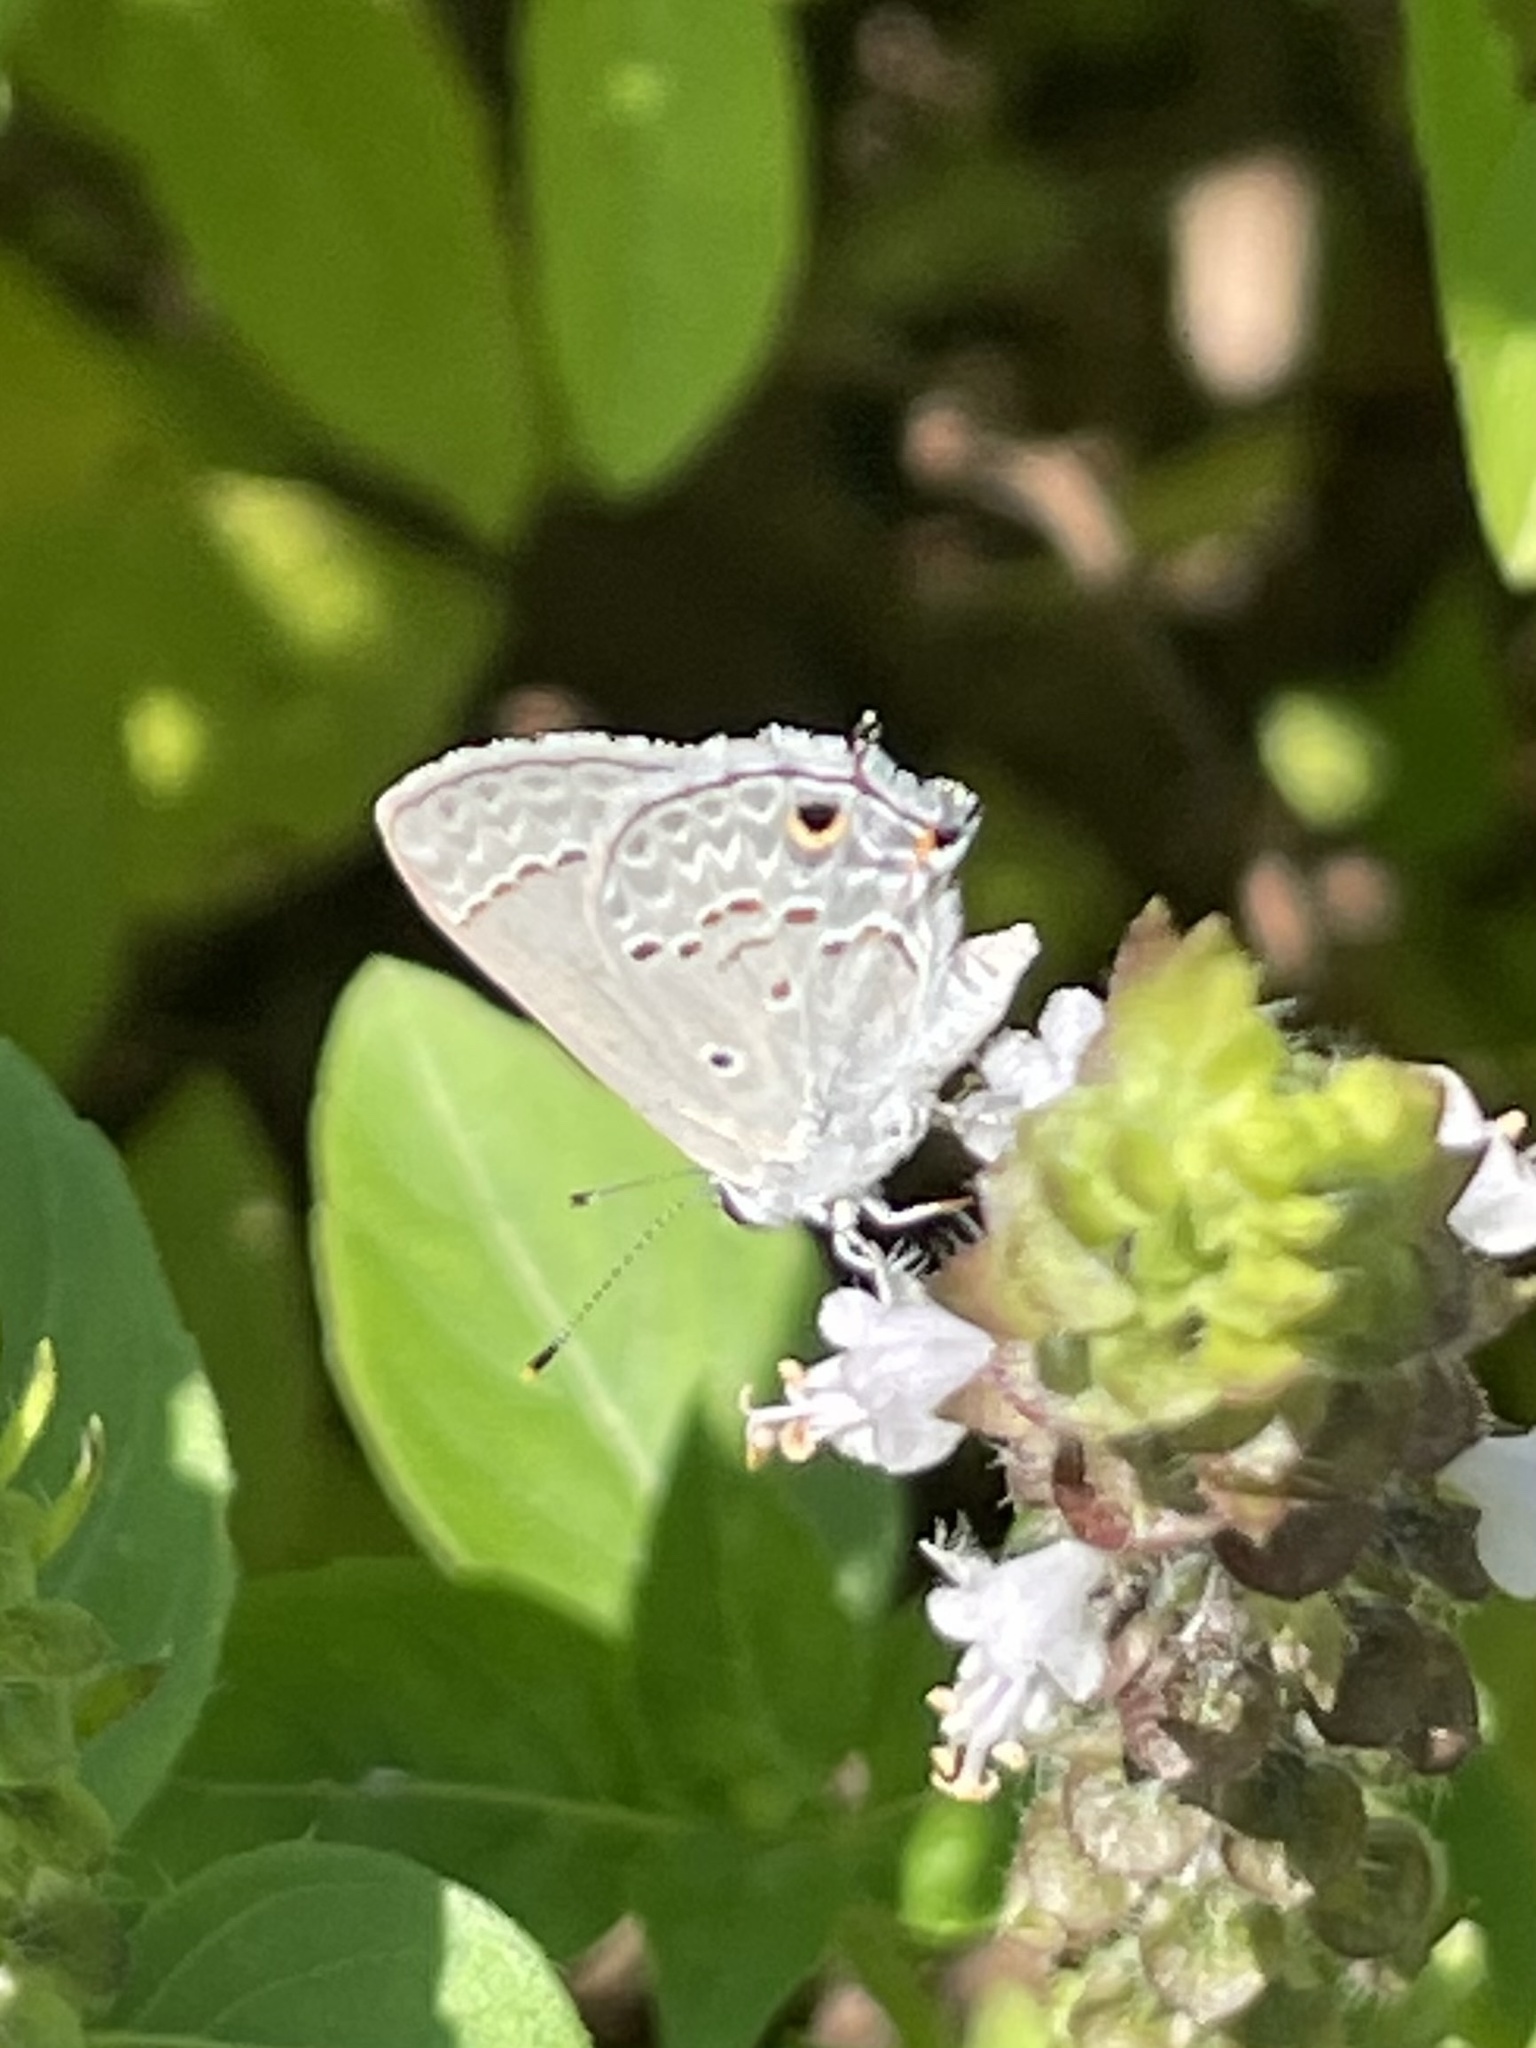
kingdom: Animalia
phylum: Arthropoda
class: Insecta
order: Lepidoptera
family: Lycaenidae
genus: Callicista
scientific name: Callicista columella
